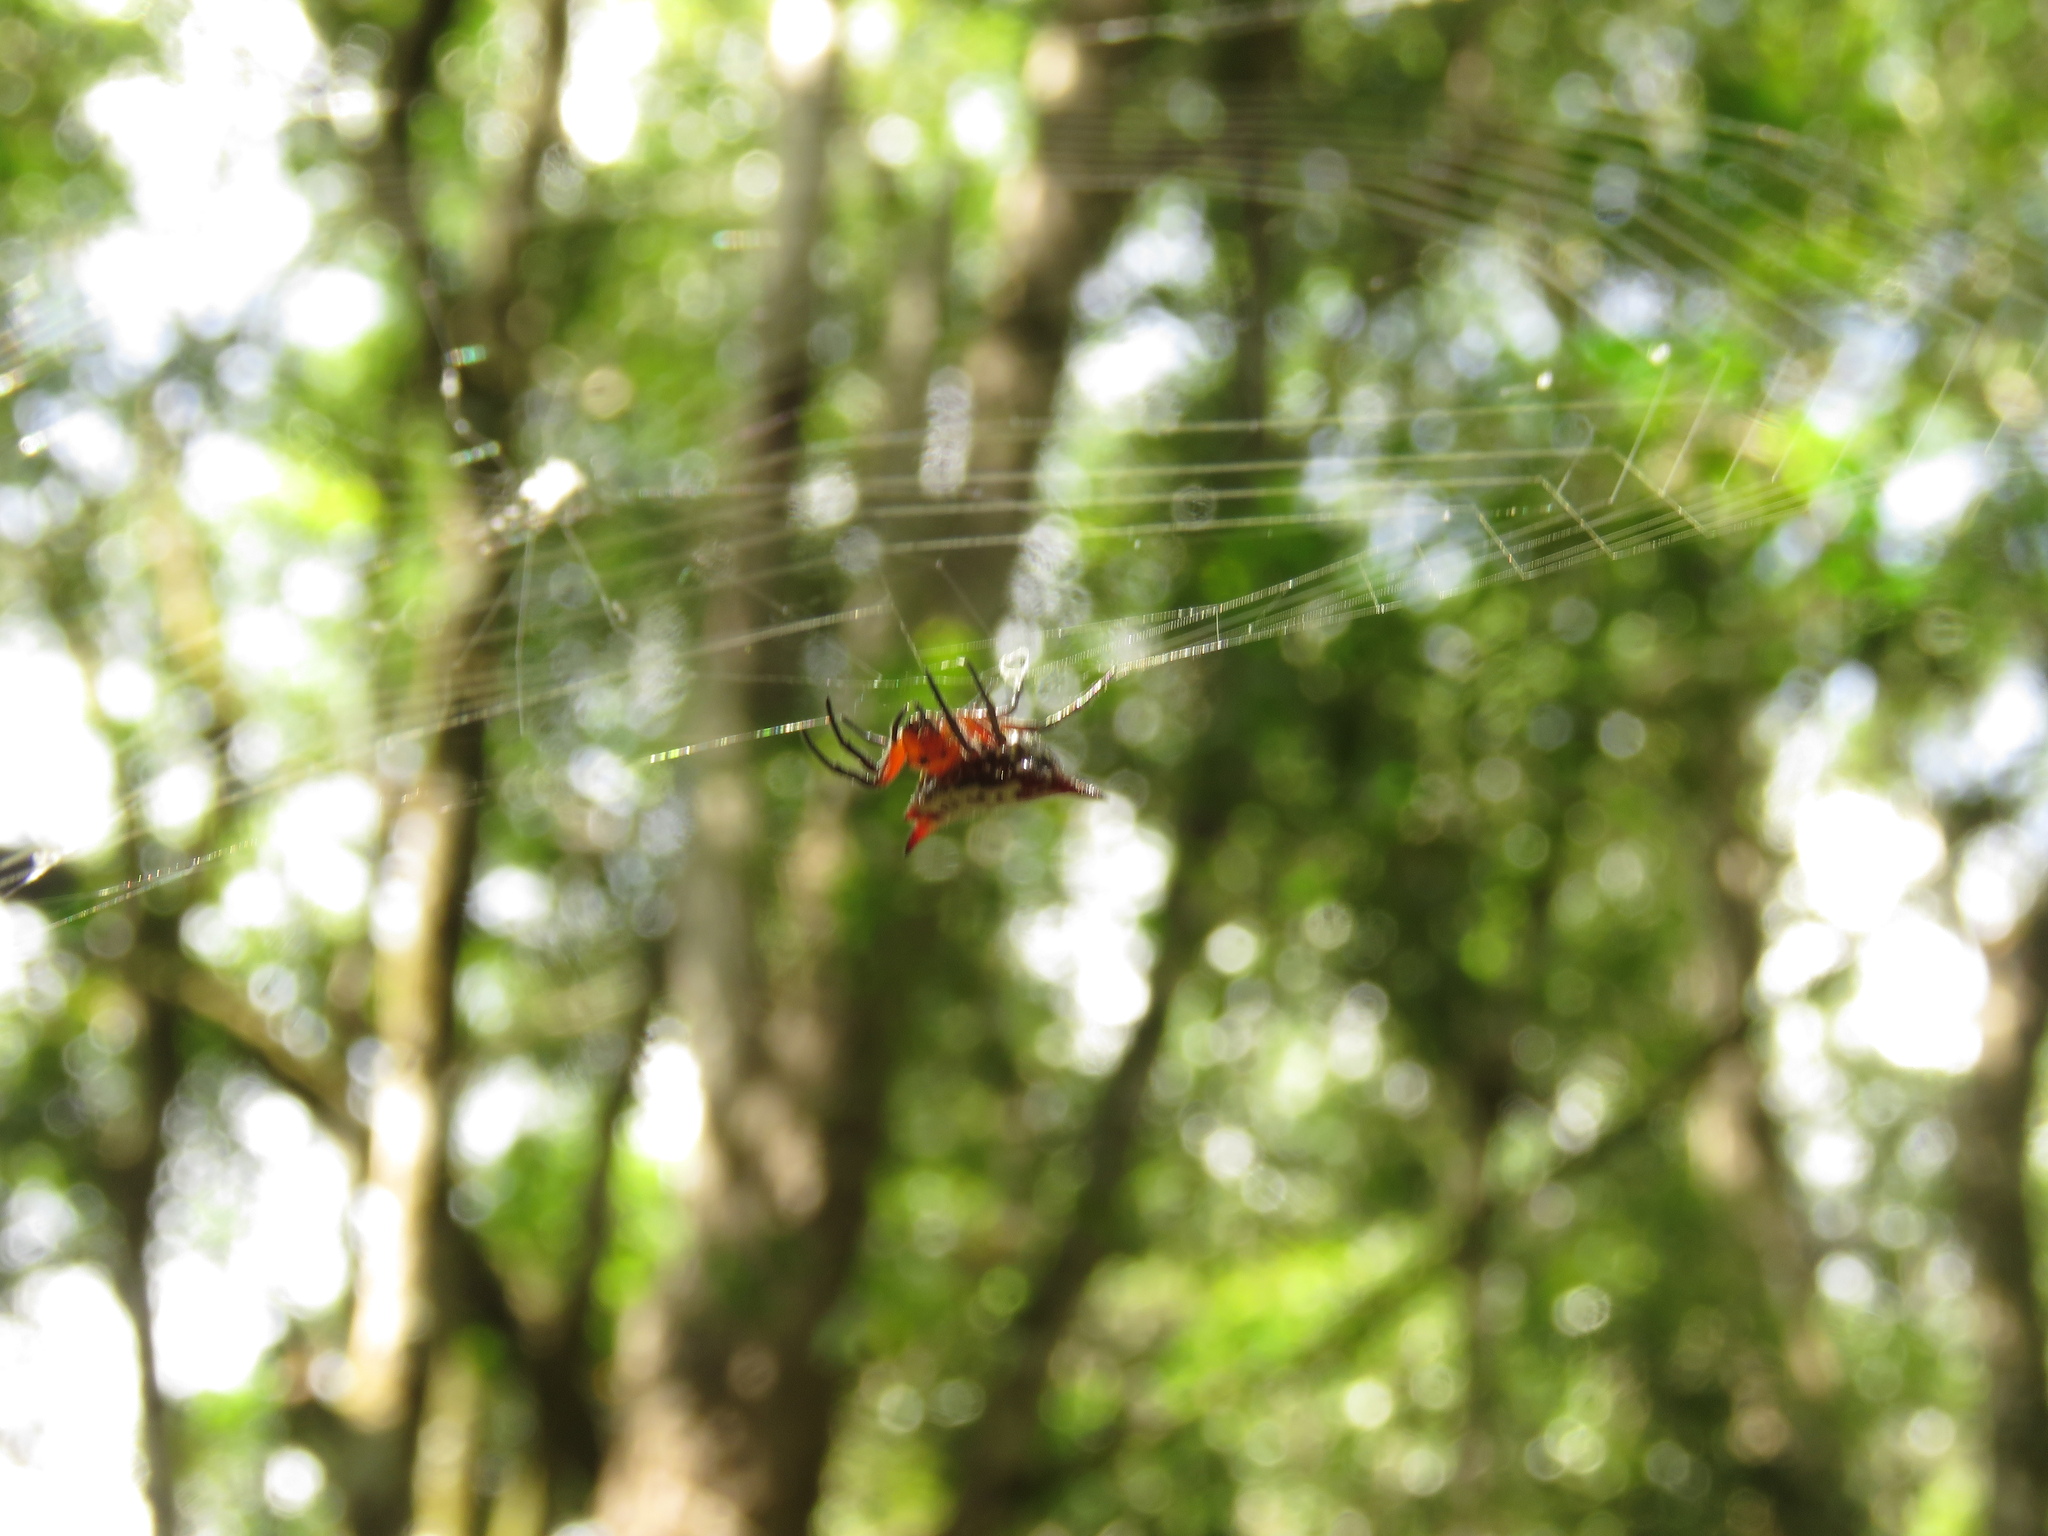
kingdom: Animalia
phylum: Arthropoda
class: Arachnida
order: Araneae
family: Araneidae
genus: Gasteracantha
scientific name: Gasteracantha sanguinolenta
